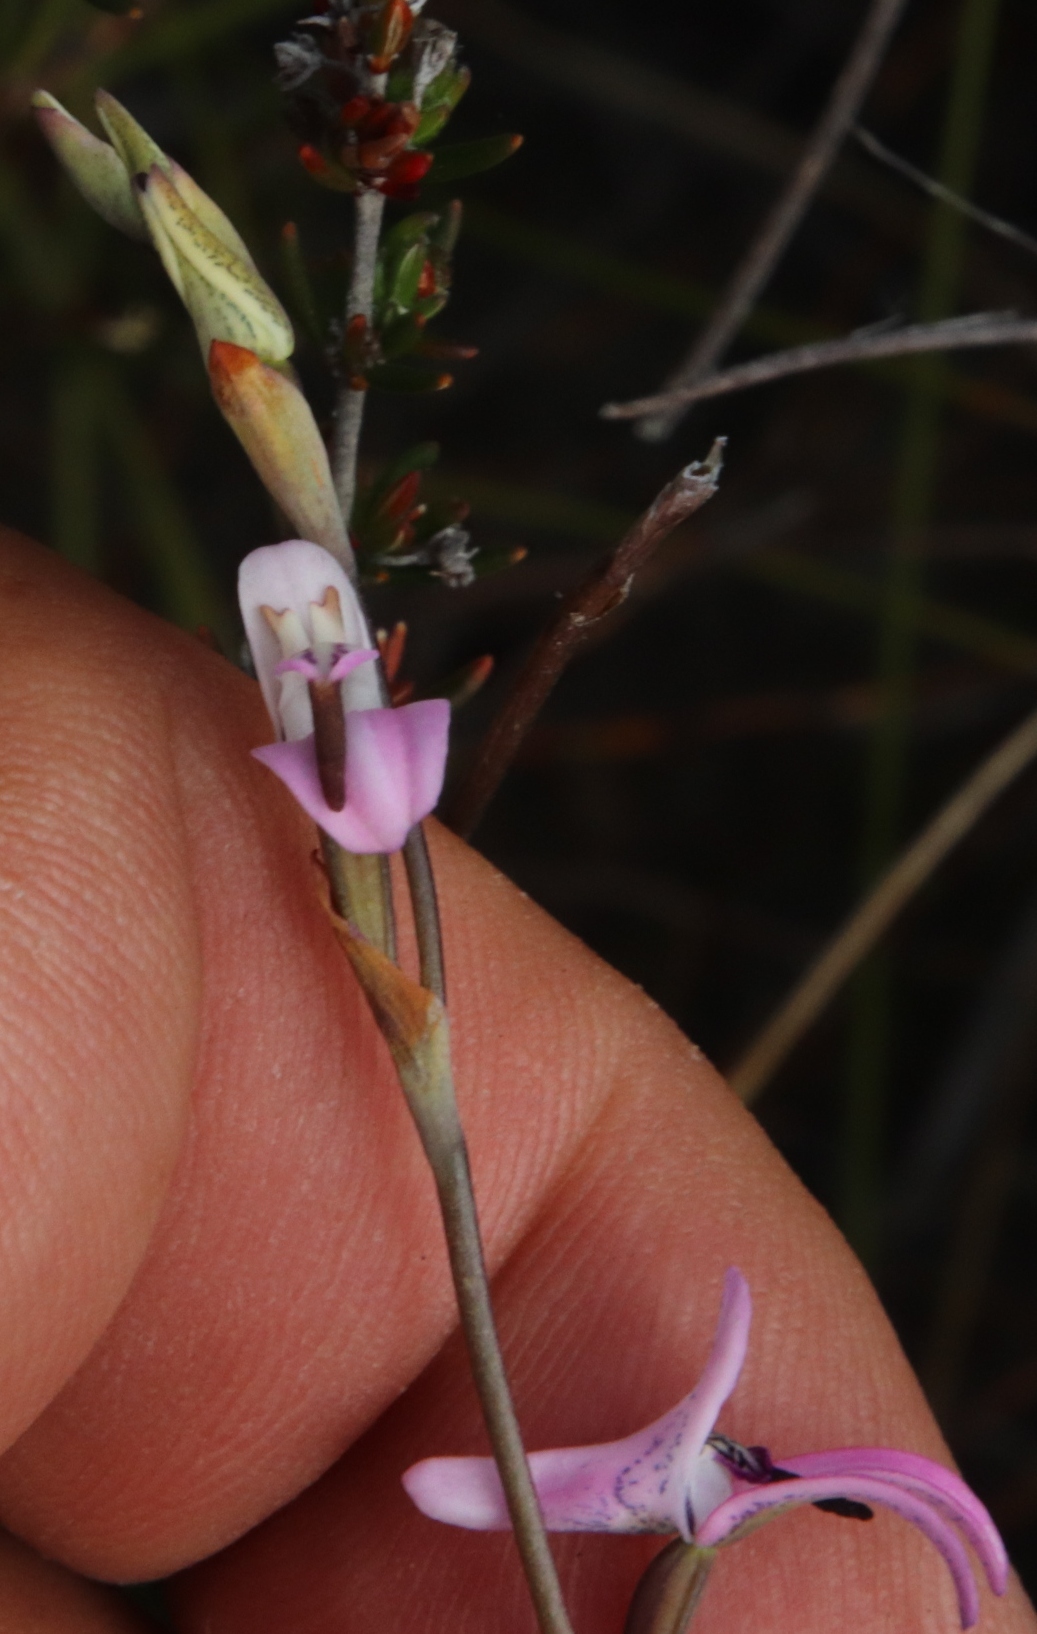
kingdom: Plantae
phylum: Tracheophyta
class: Liliopsida
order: Asparagales
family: Orchidaceae
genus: Disa
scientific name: Disa inflexa
